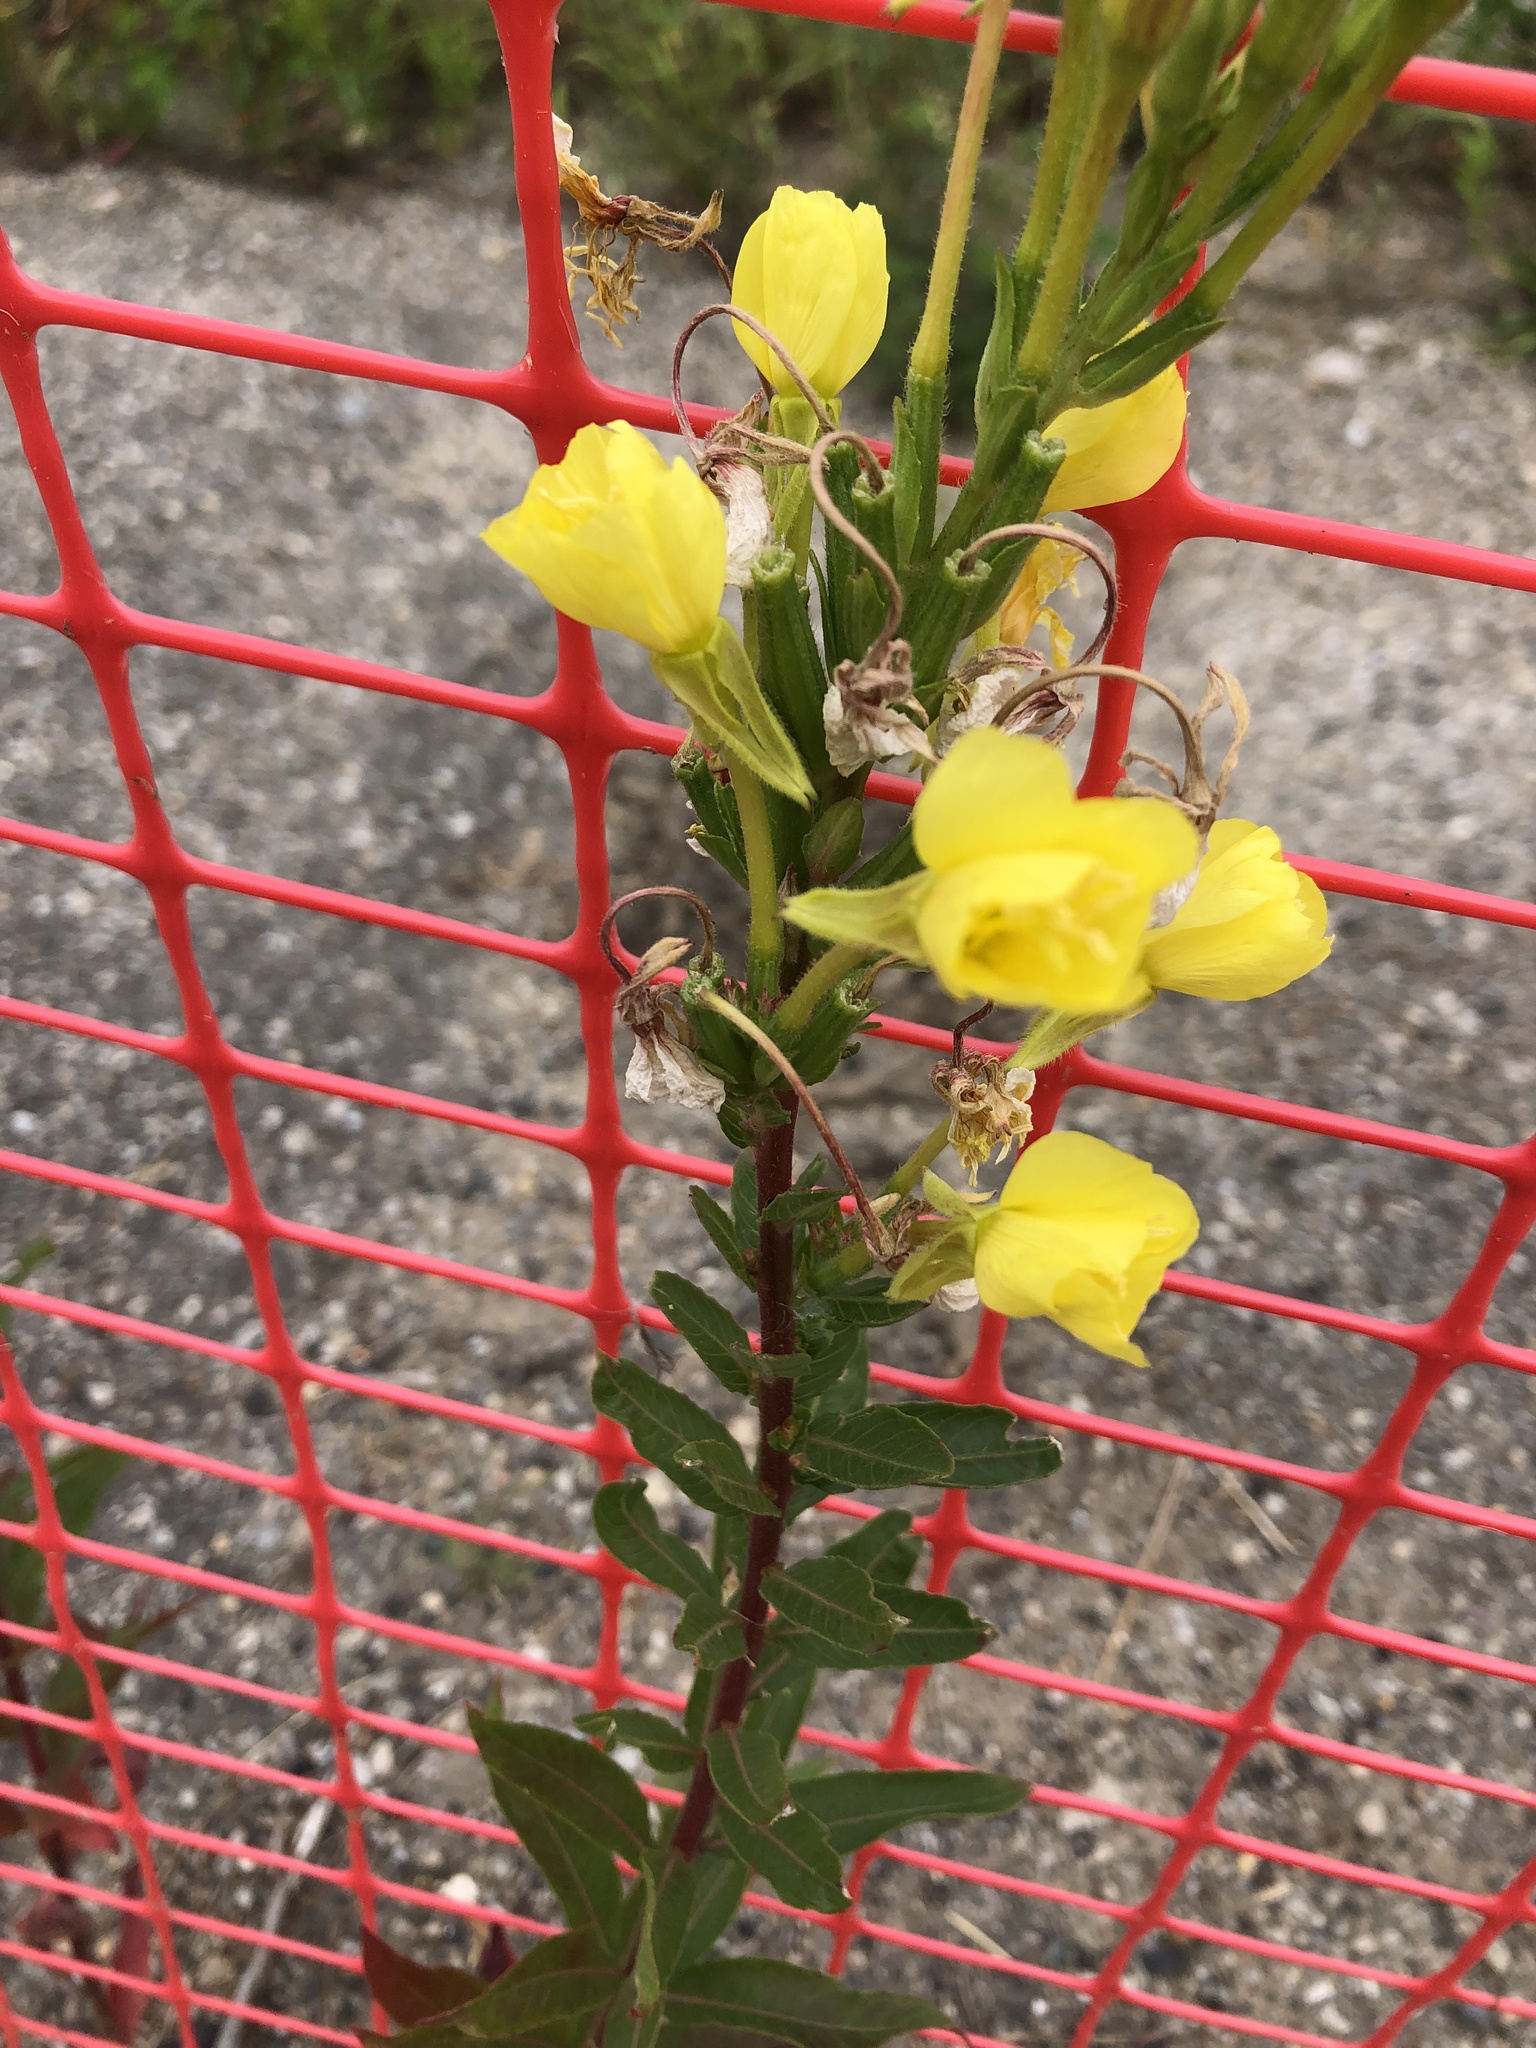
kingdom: Plantae
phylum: Tracheophyta
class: Magnoliopsida
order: Myrtales
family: Onagraceae
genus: Oenothera
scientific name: Oenothera biennis
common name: Common evening-primrose
